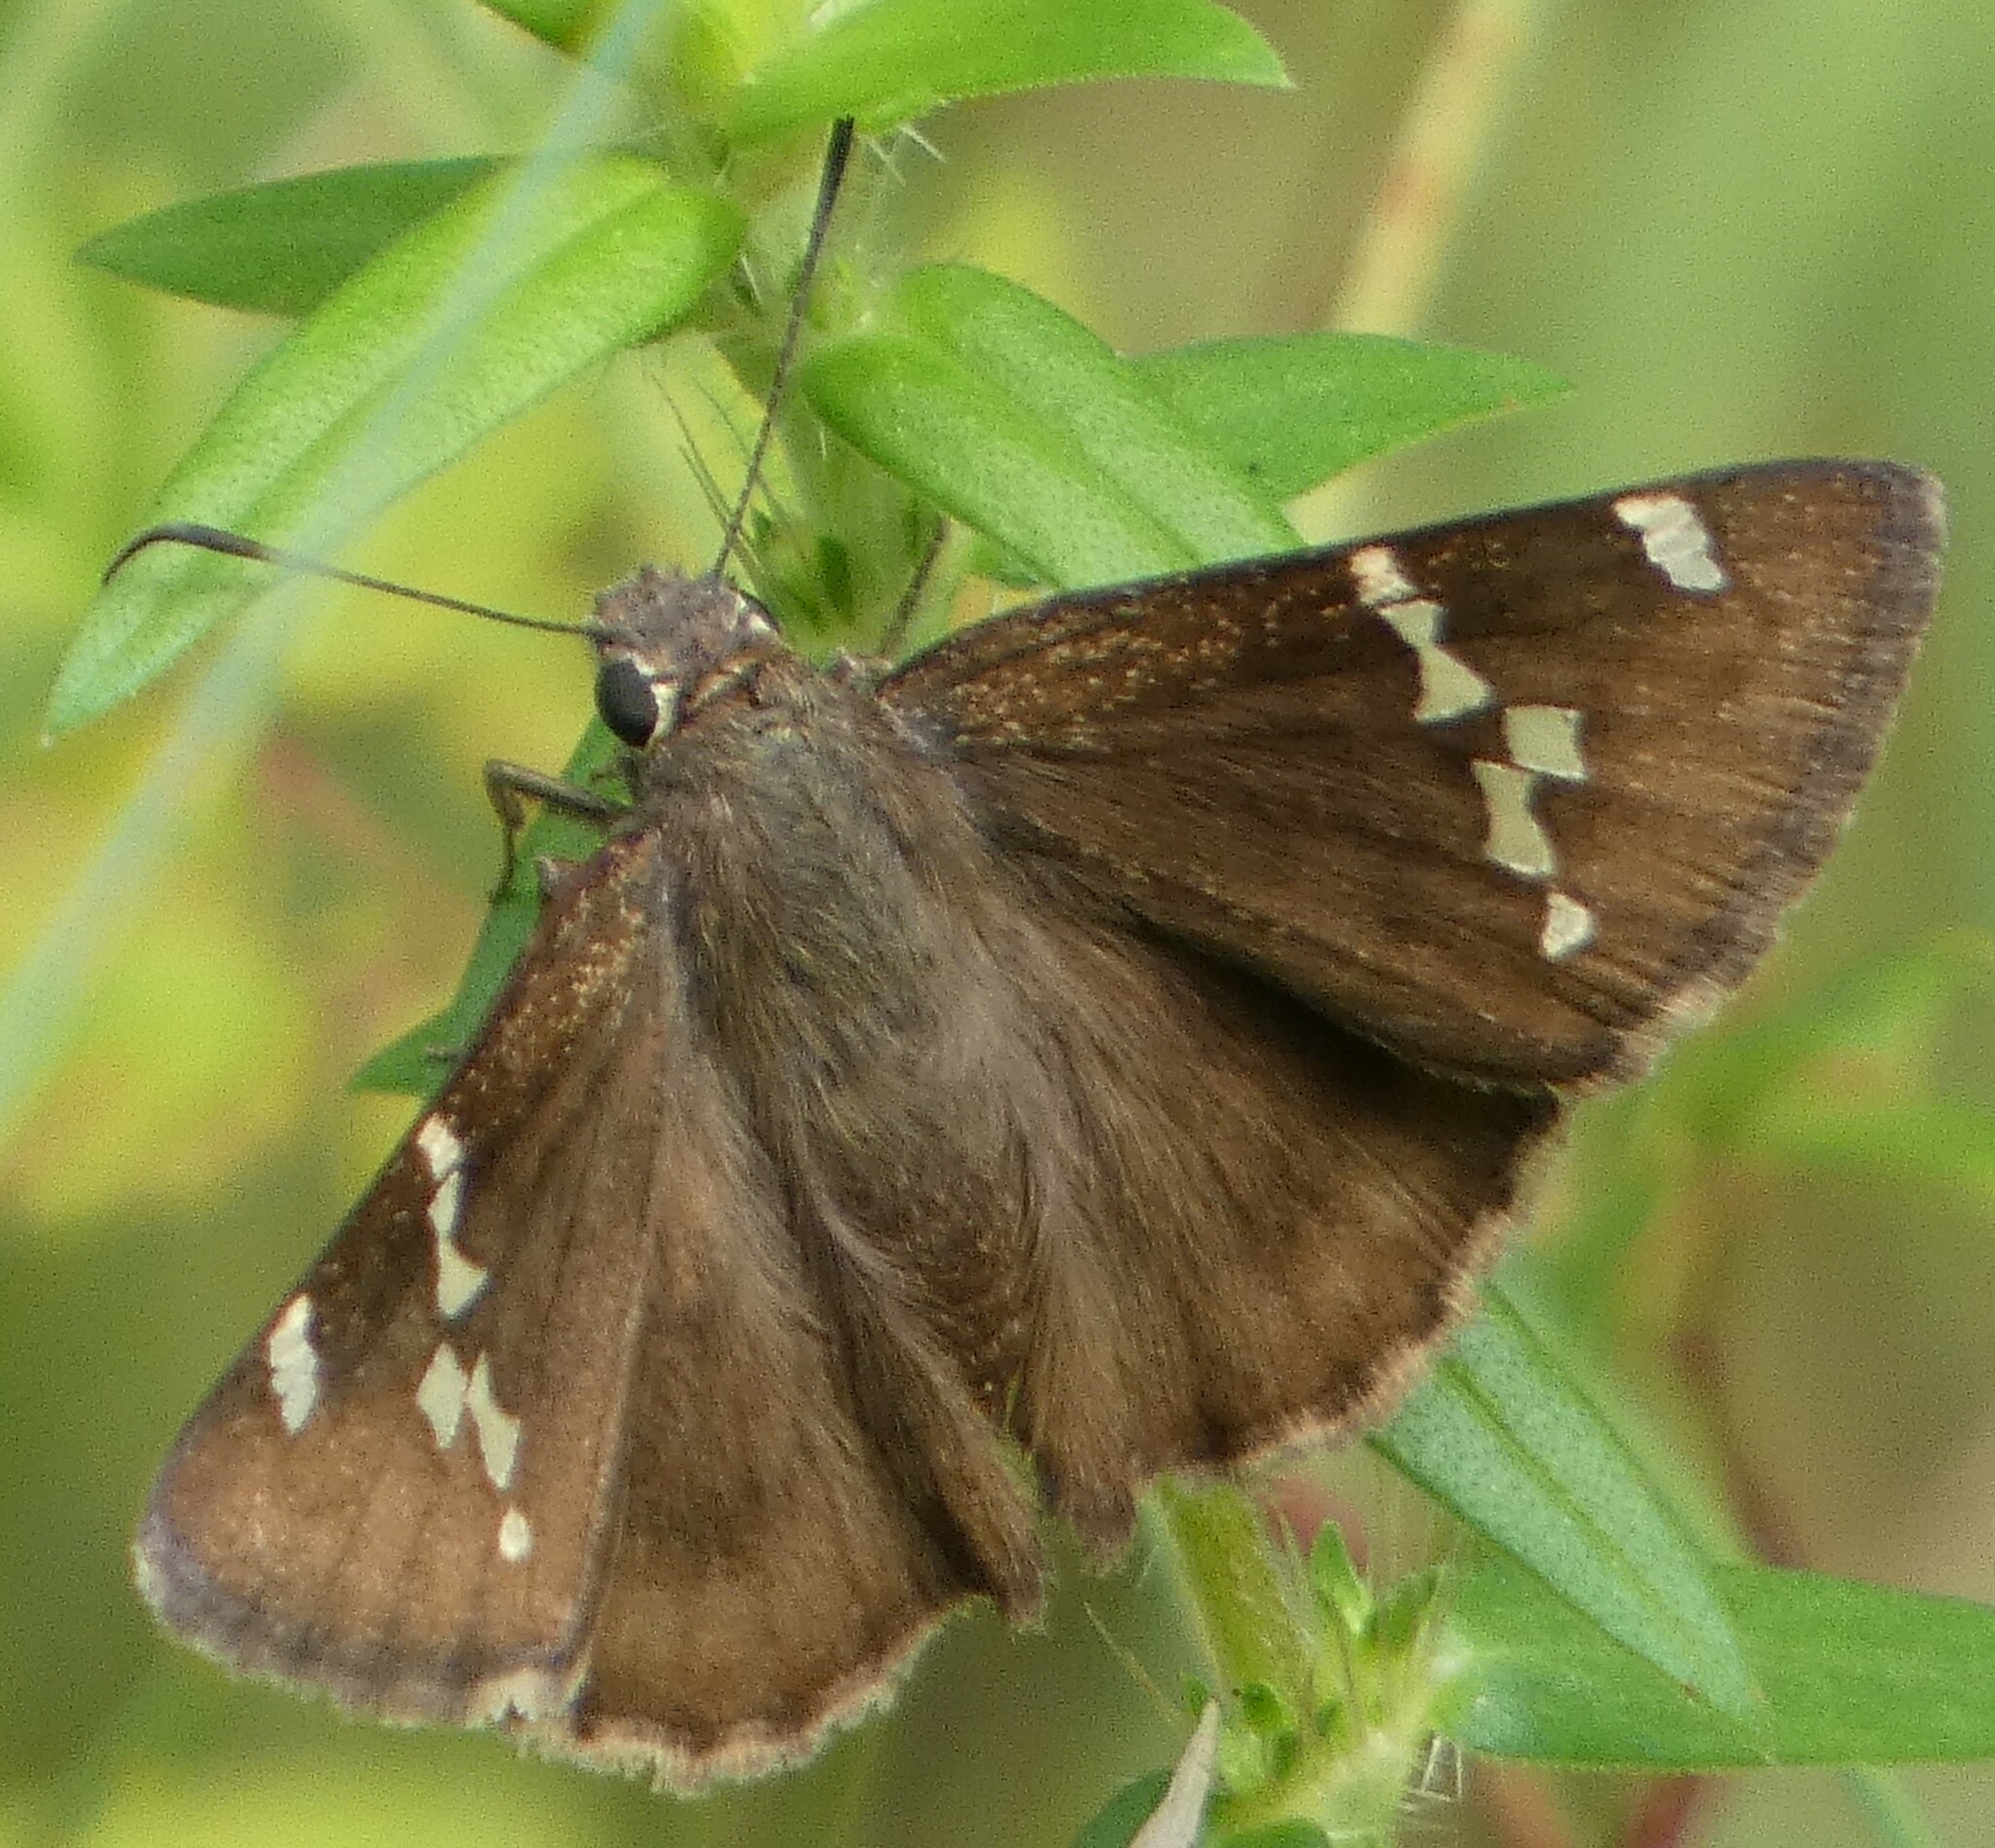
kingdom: Animalia
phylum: Arthropoda
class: Insecta
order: Lepidoptera
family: Hesperiidae
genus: Thorybes
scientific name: Thorybes daunus
